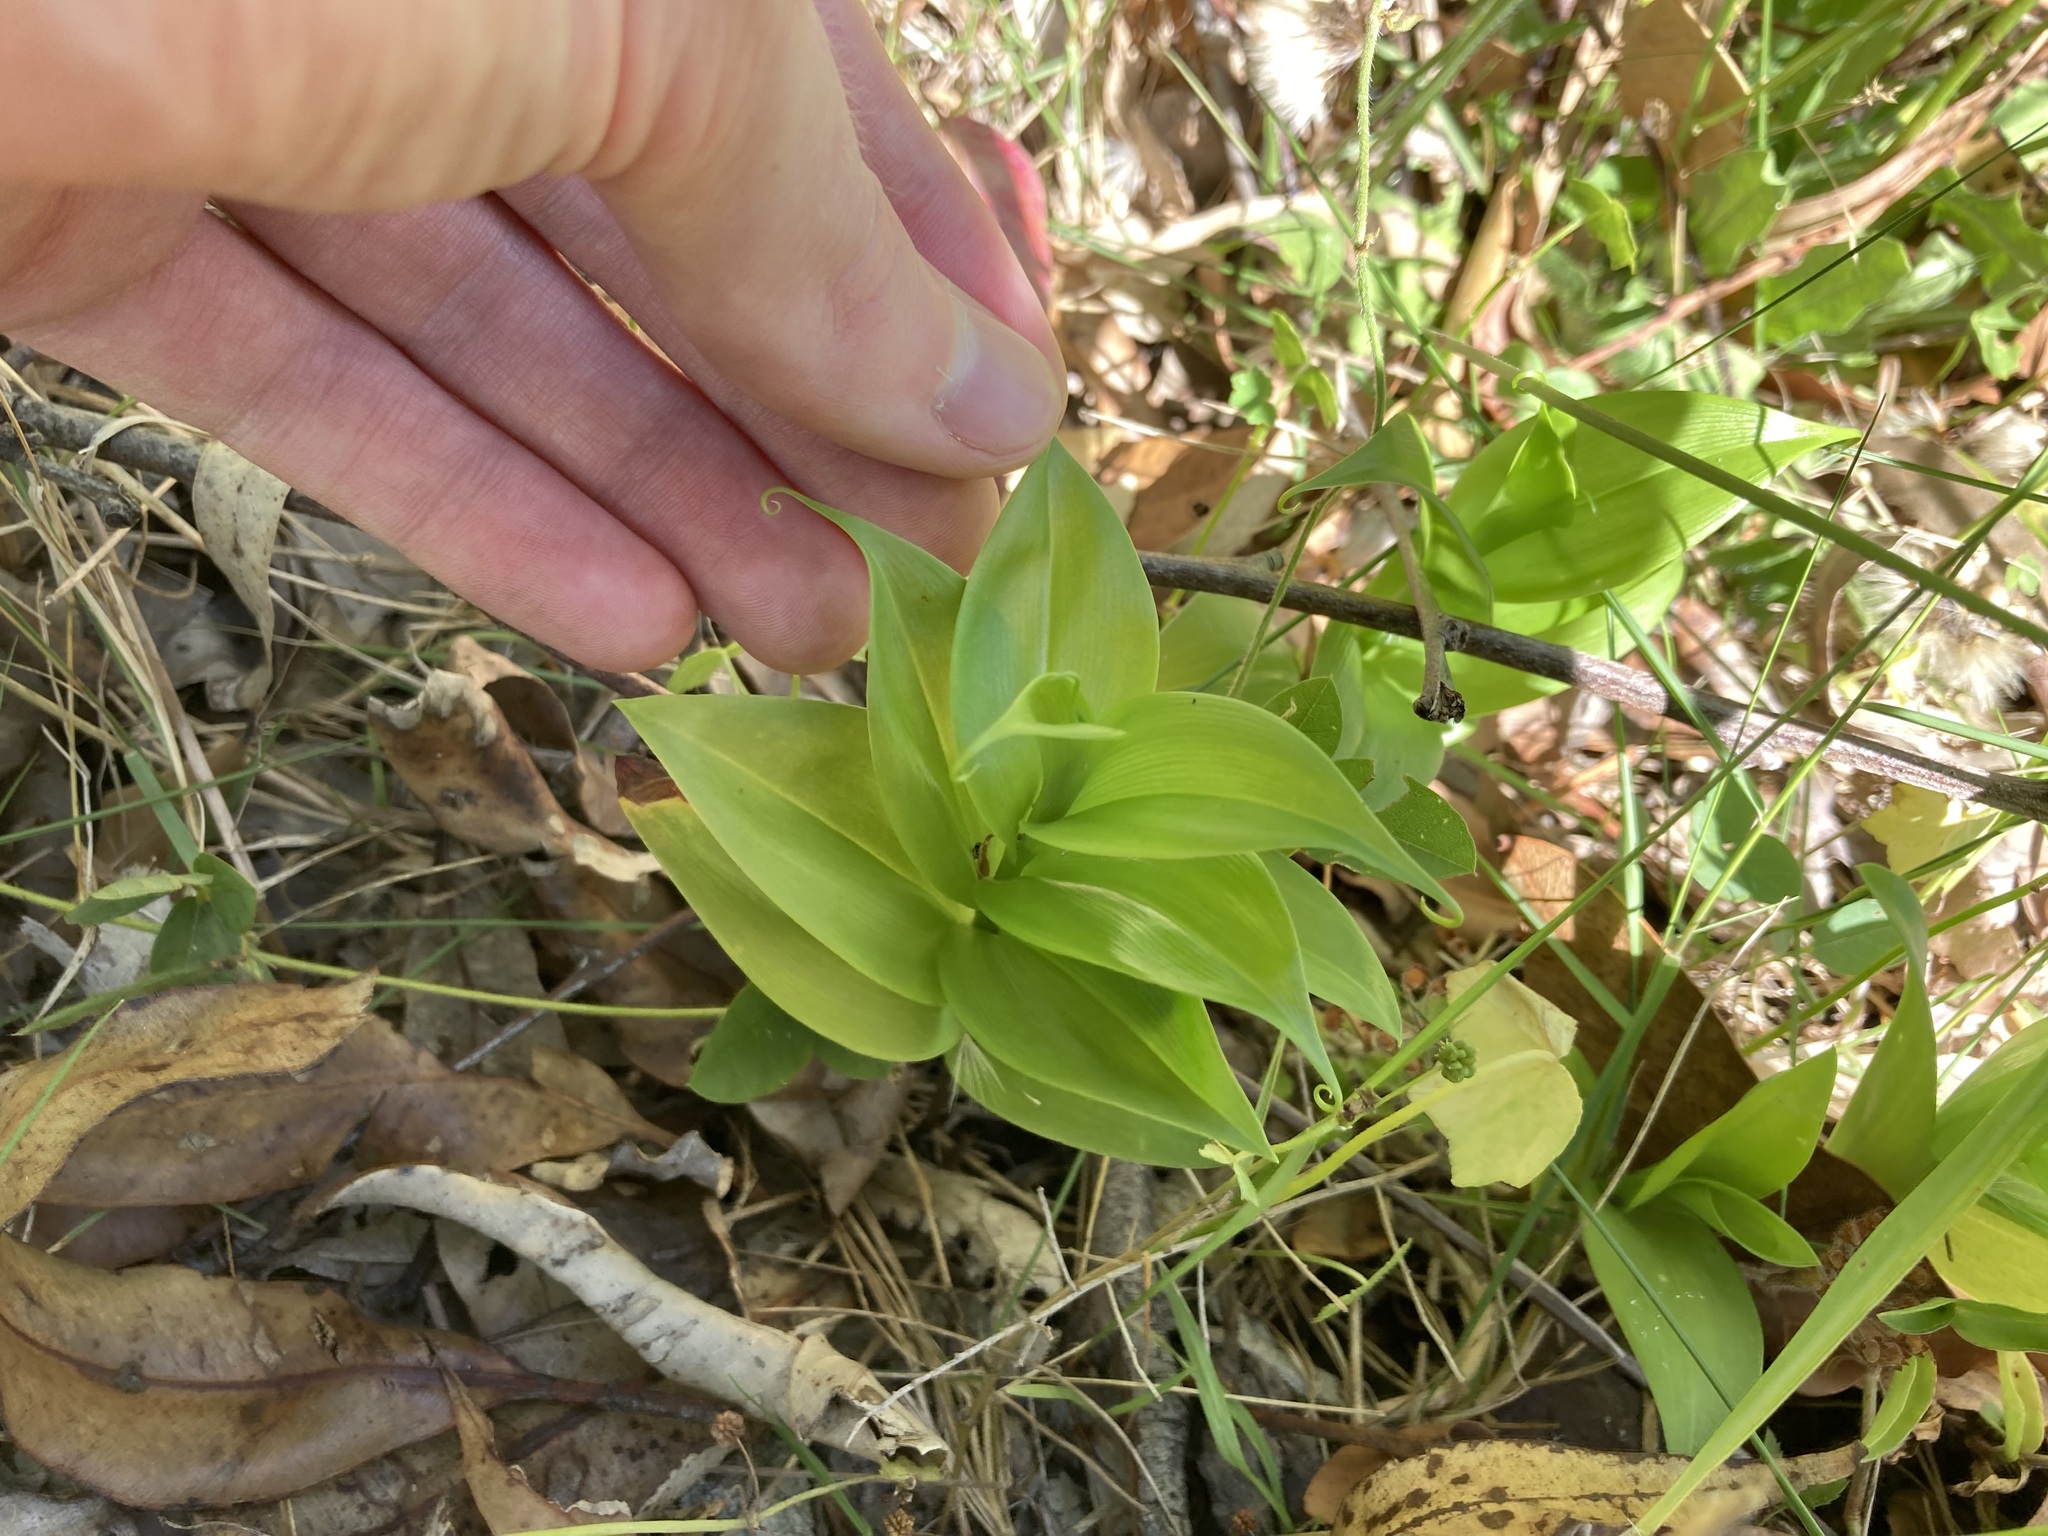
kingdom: Plantae
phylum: Tracheophyta
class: Liliopsida
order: Commelinales
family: Commelinaceae
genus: Tradescantia
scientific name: Tradescantia fluminensis
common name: Wandering-jew
